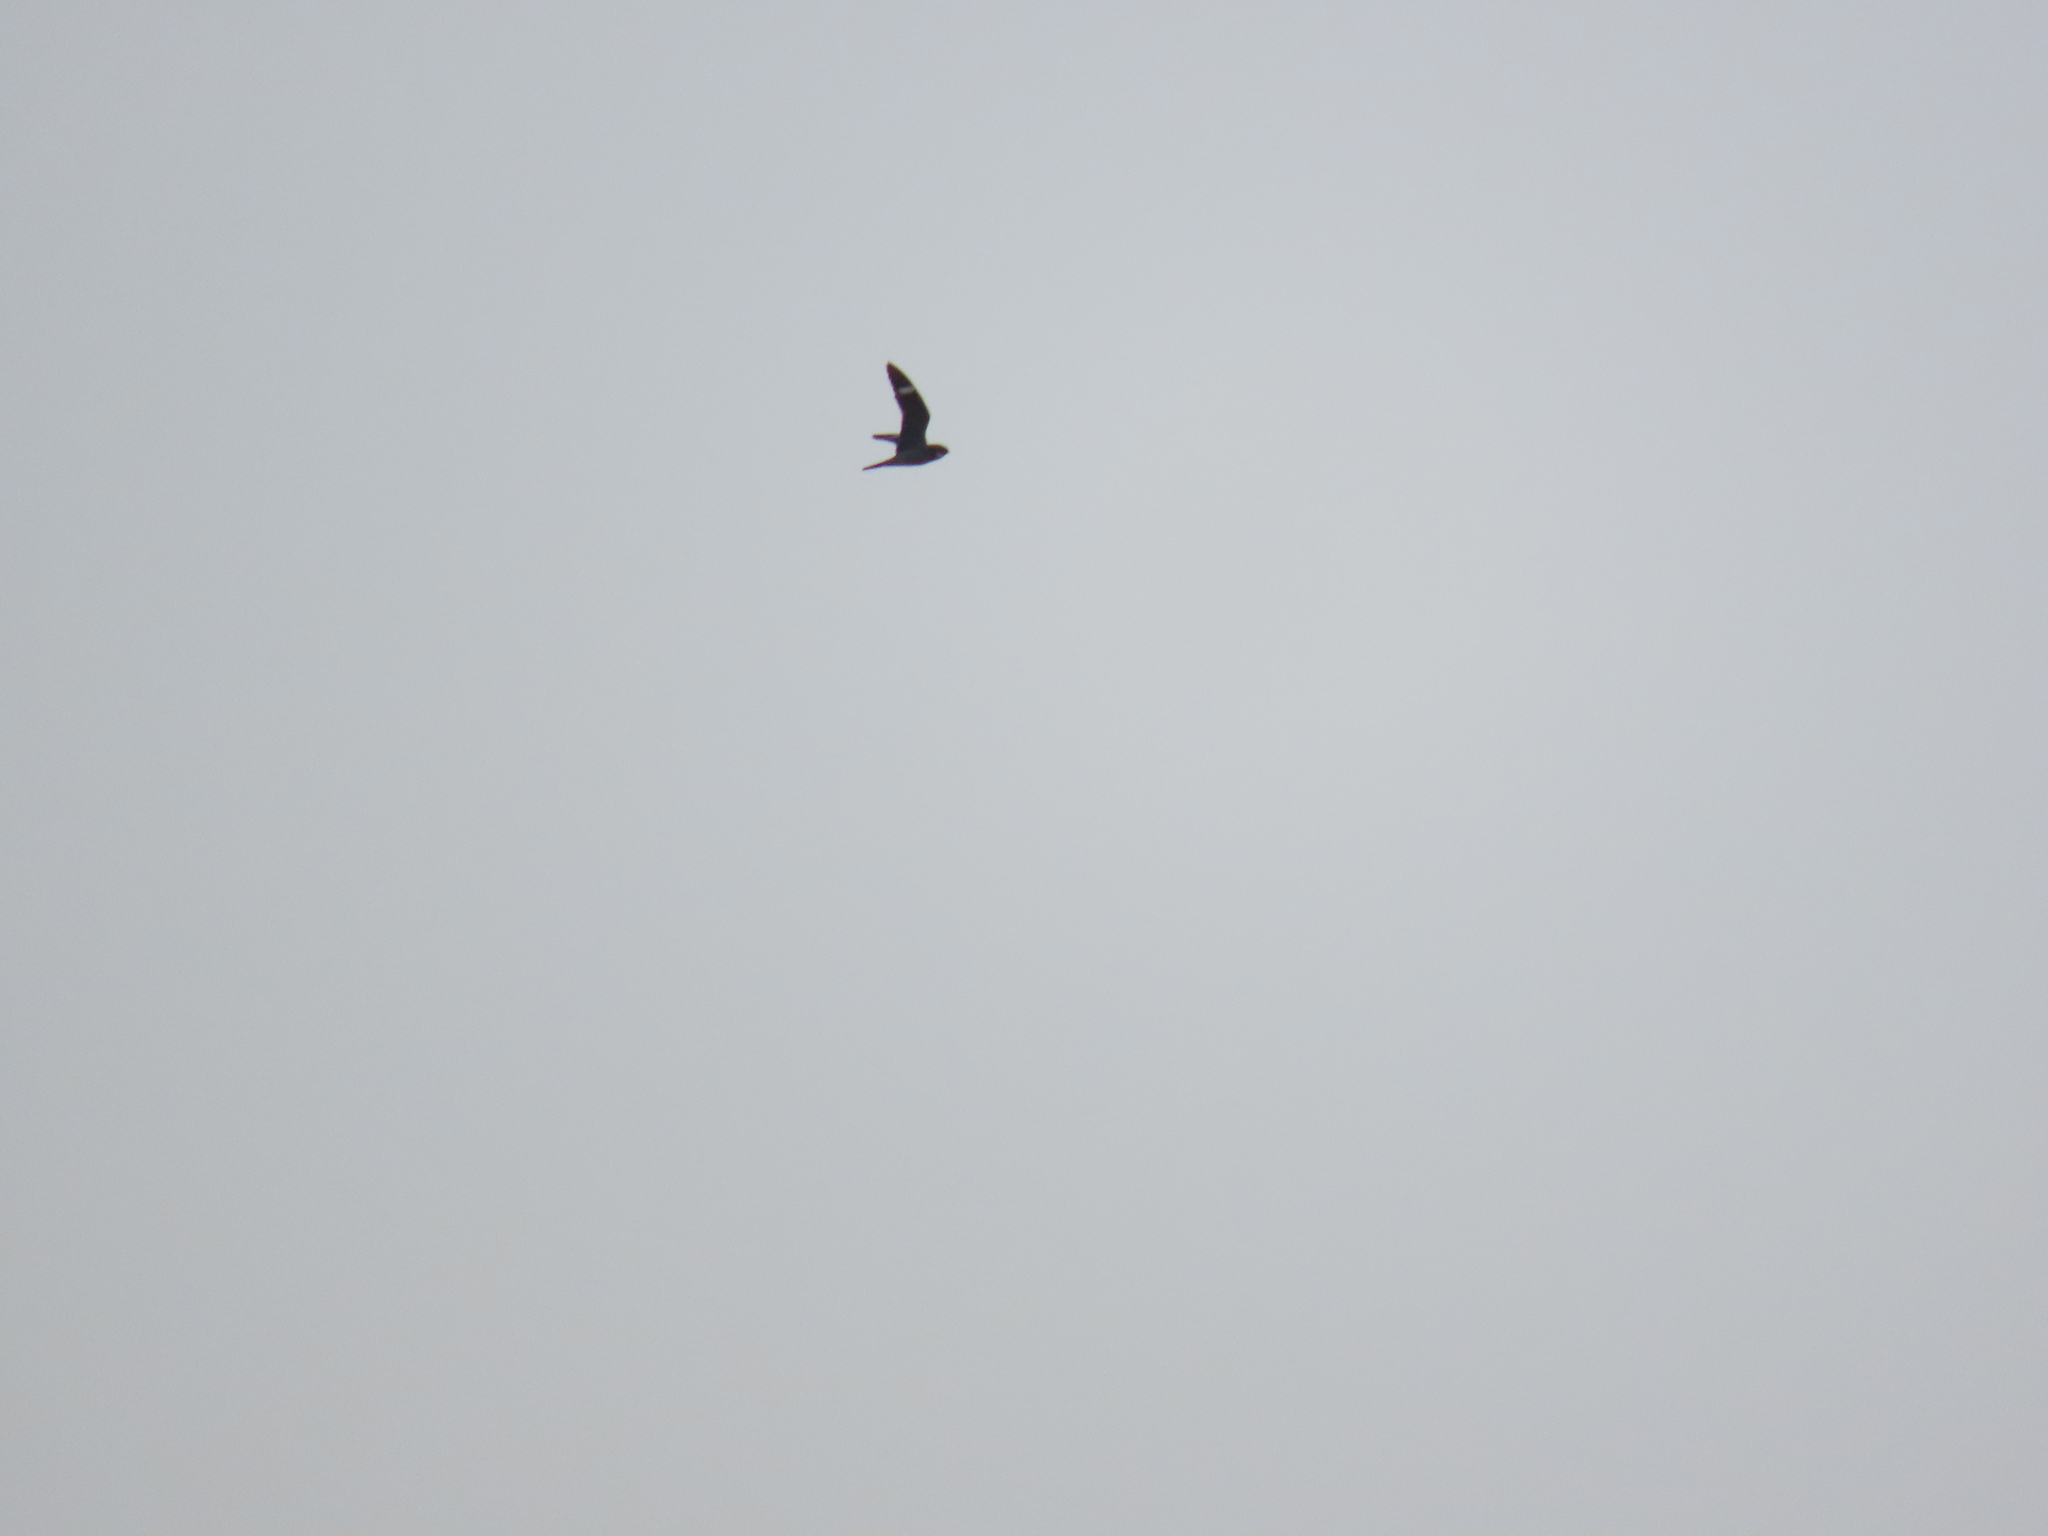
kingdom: Animalia
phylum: Chordata
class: Aves
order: Caprimulgiformes
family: Caprimulgidae
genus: Chordeiles
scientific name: Chordeiles minor
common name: Common nighthawk
